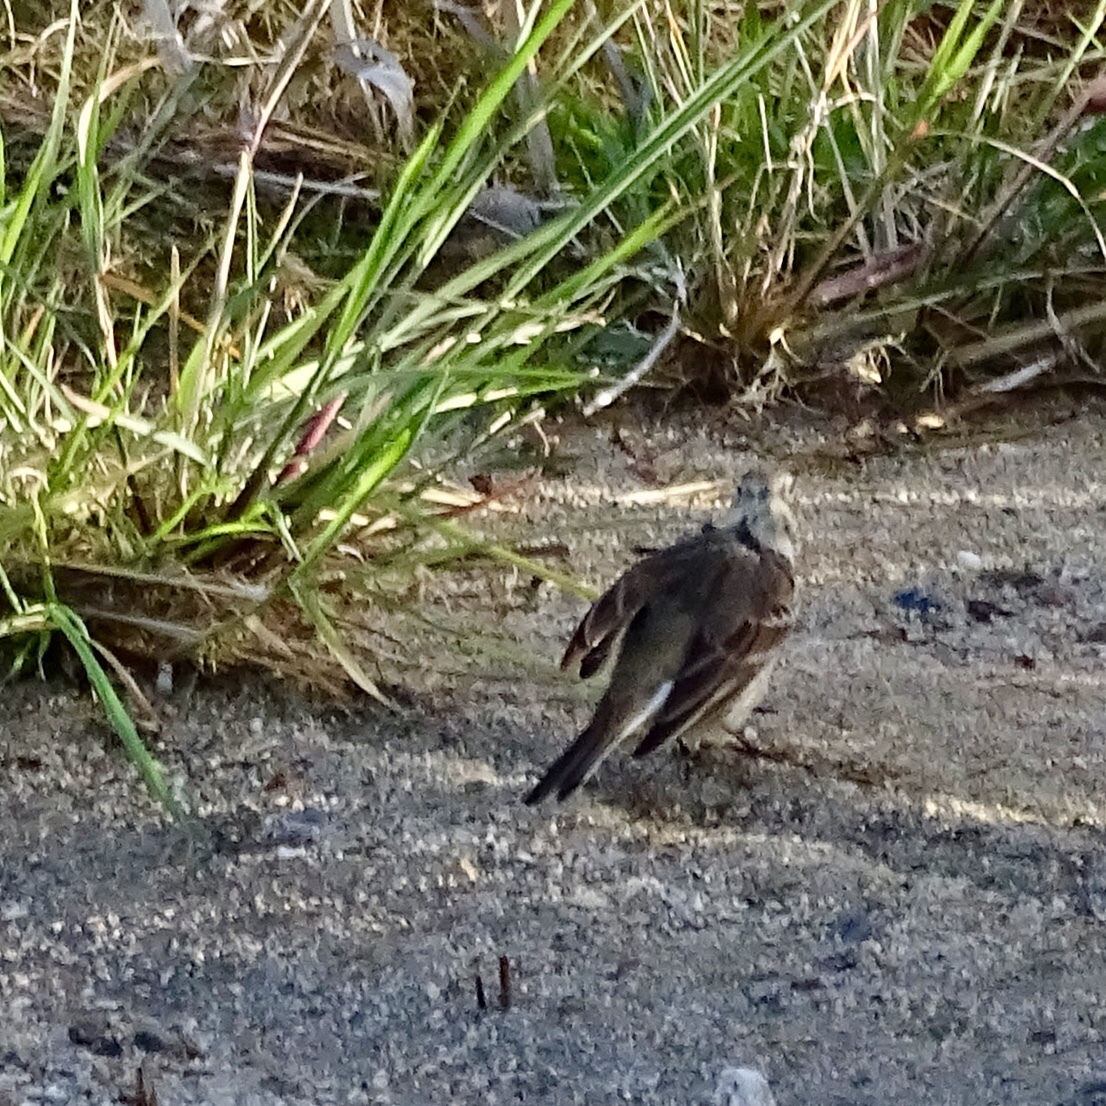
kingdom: Animalia
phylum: Chordata
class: Aves
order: Passeriformes
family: Motacillidae
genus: Anthus
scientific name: Anthus rubescens
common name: Buff-bellied pipit
